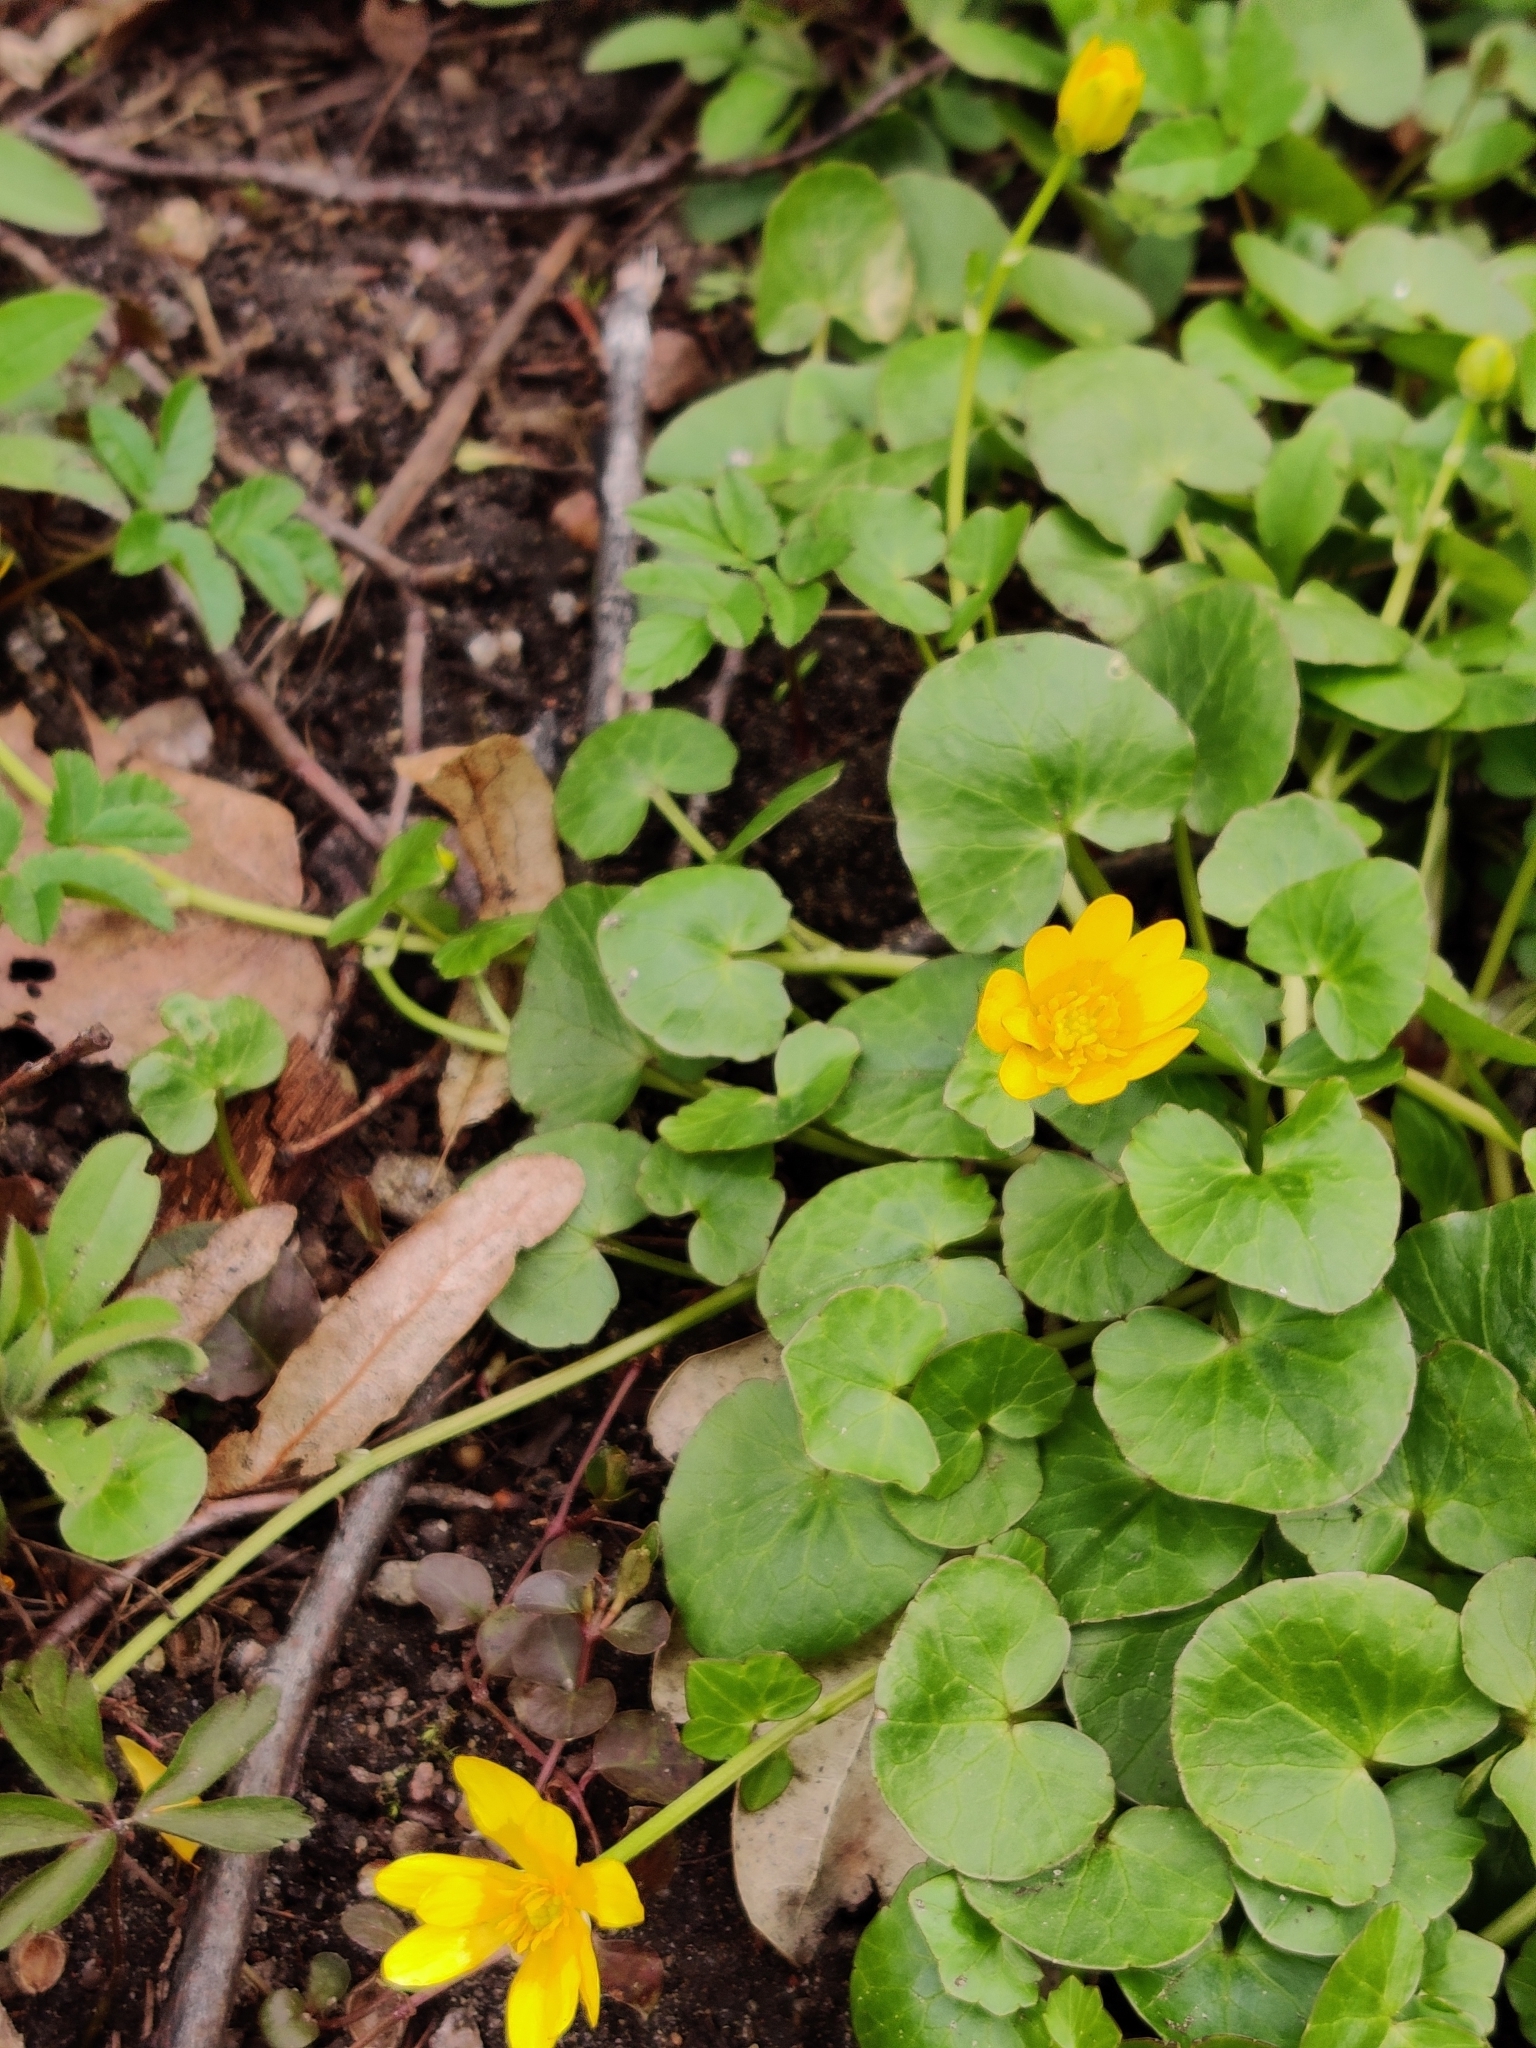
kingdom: Plantae
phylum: Tracheophyta
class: Magnoliopsida
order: Ranunculales
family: Ranunculaceae
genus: Ficaria
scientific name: Ficaria verna
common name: Lesser celandine
